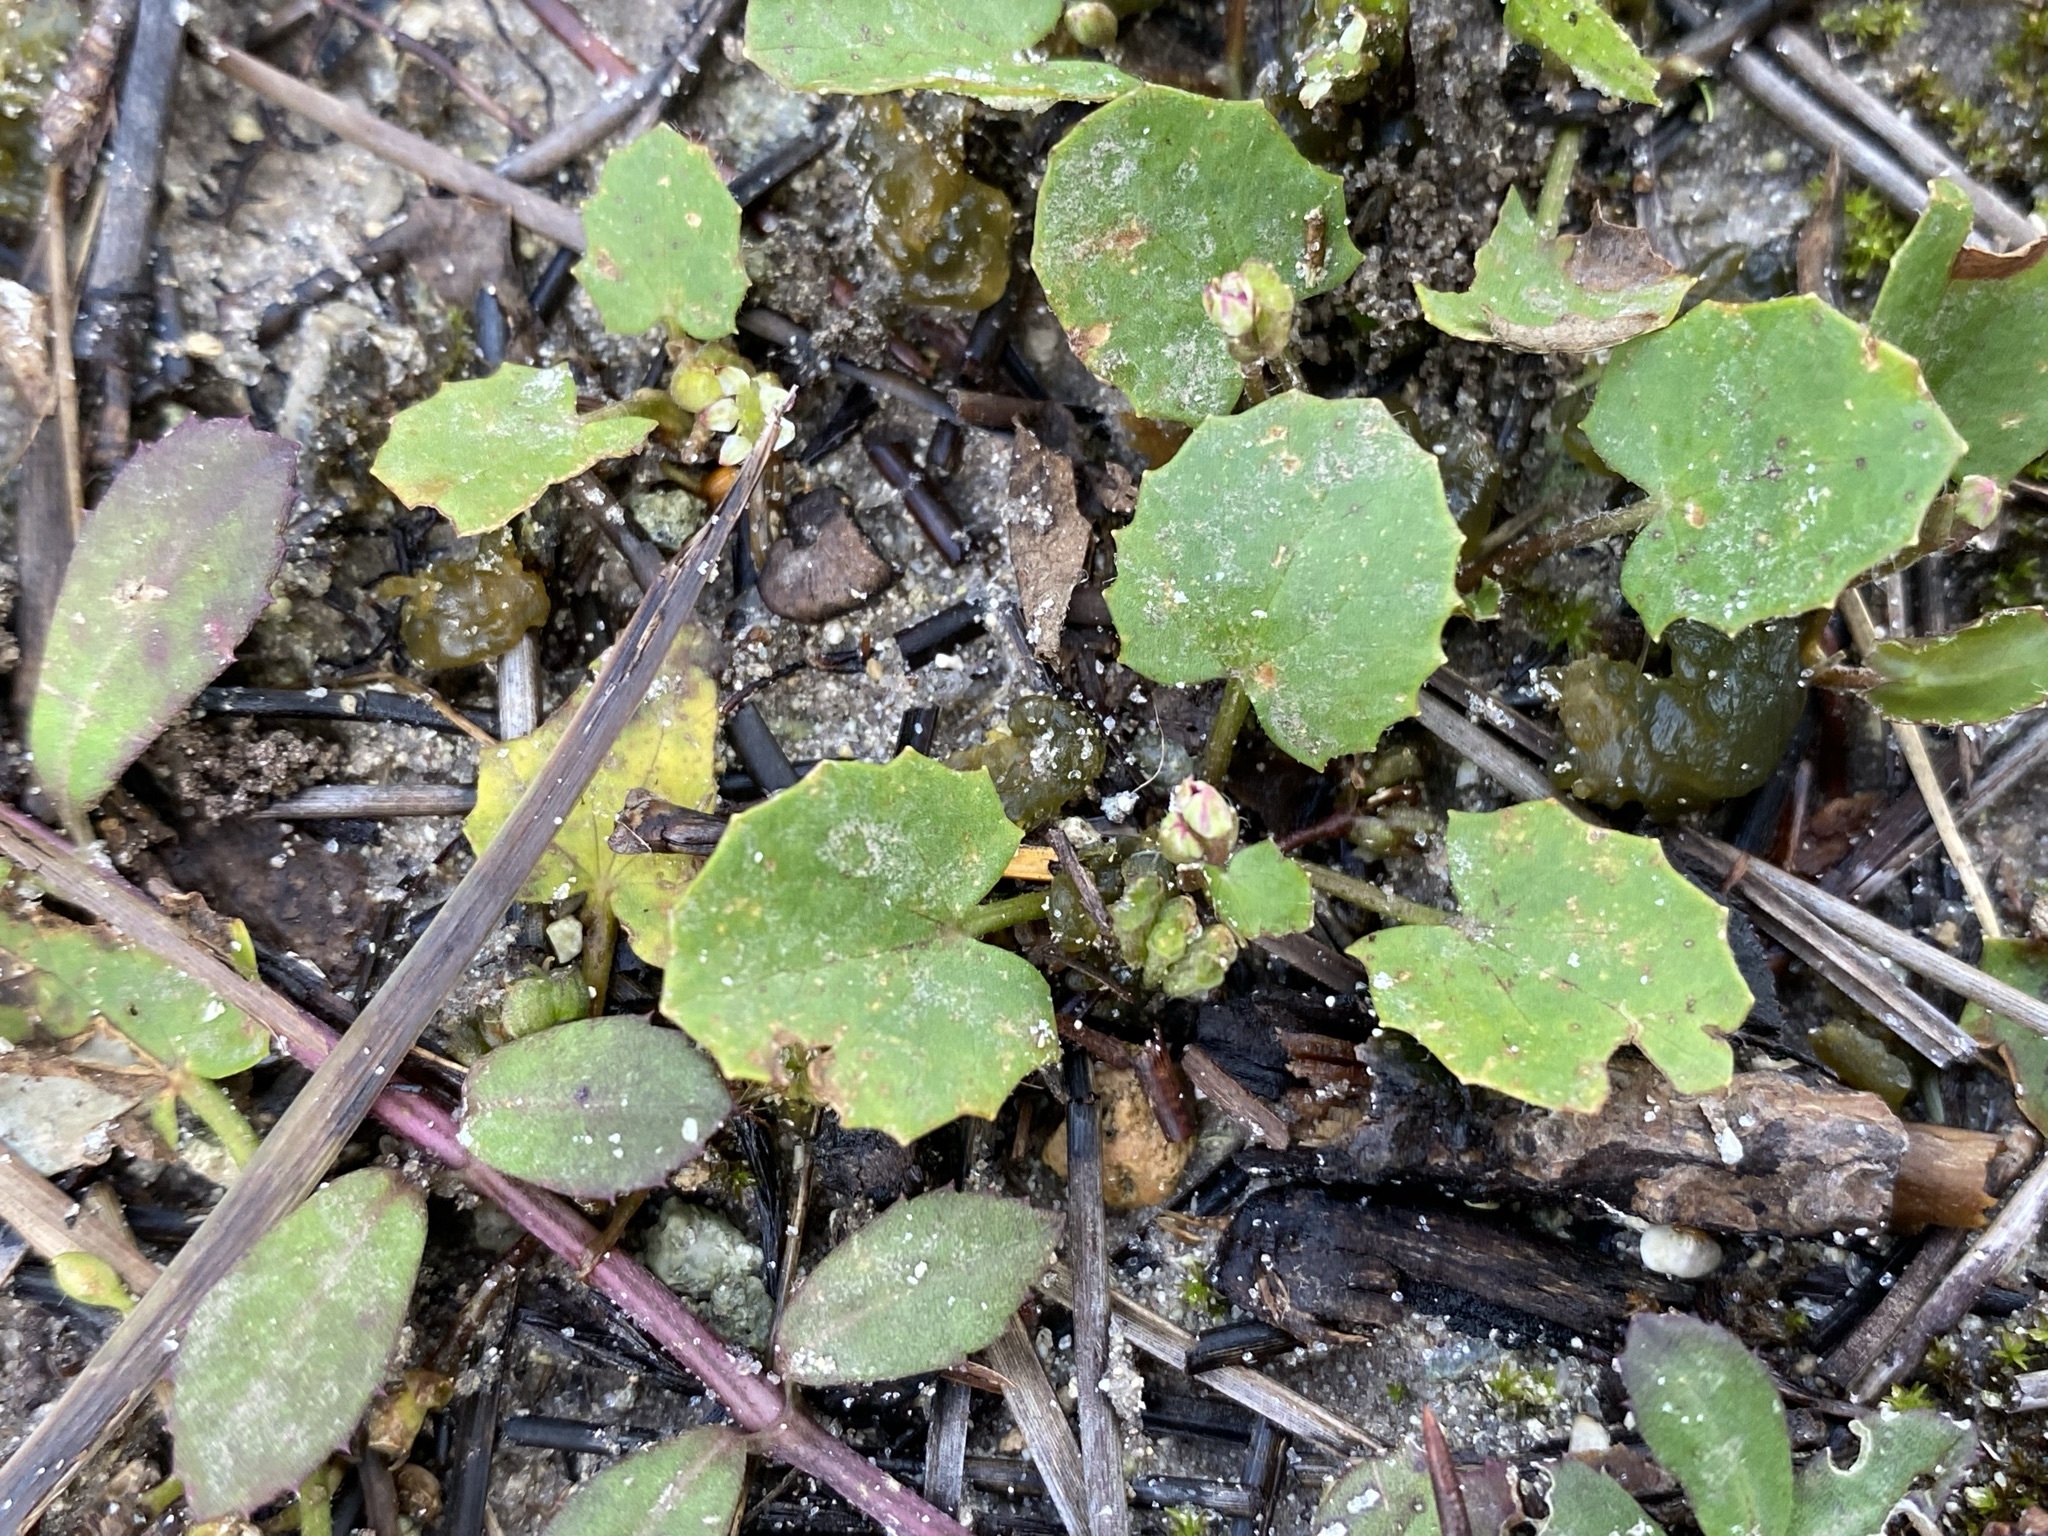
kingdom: Plantae
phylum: Tracheophyta
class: Magnoliopsida
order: Apiales
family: Apiaceae
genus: Centella
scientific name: Centella erecta
